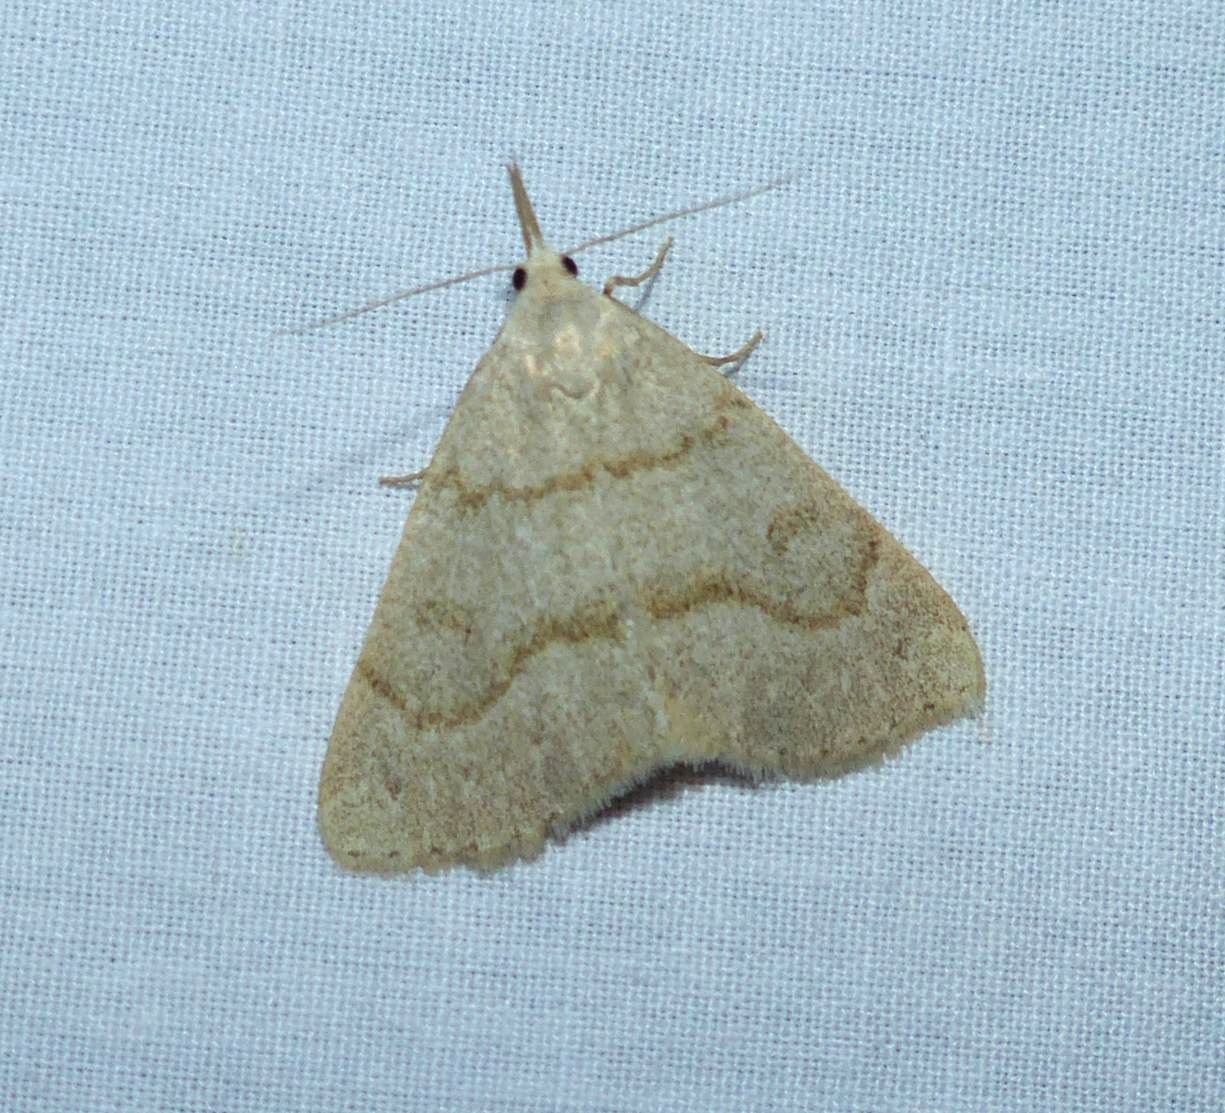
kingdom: Animalia
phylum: Arthropoda
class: Insecta
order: Lepidoptera
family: Erebidae
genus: Macrochilo
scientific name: Macrochilo morbidalis
